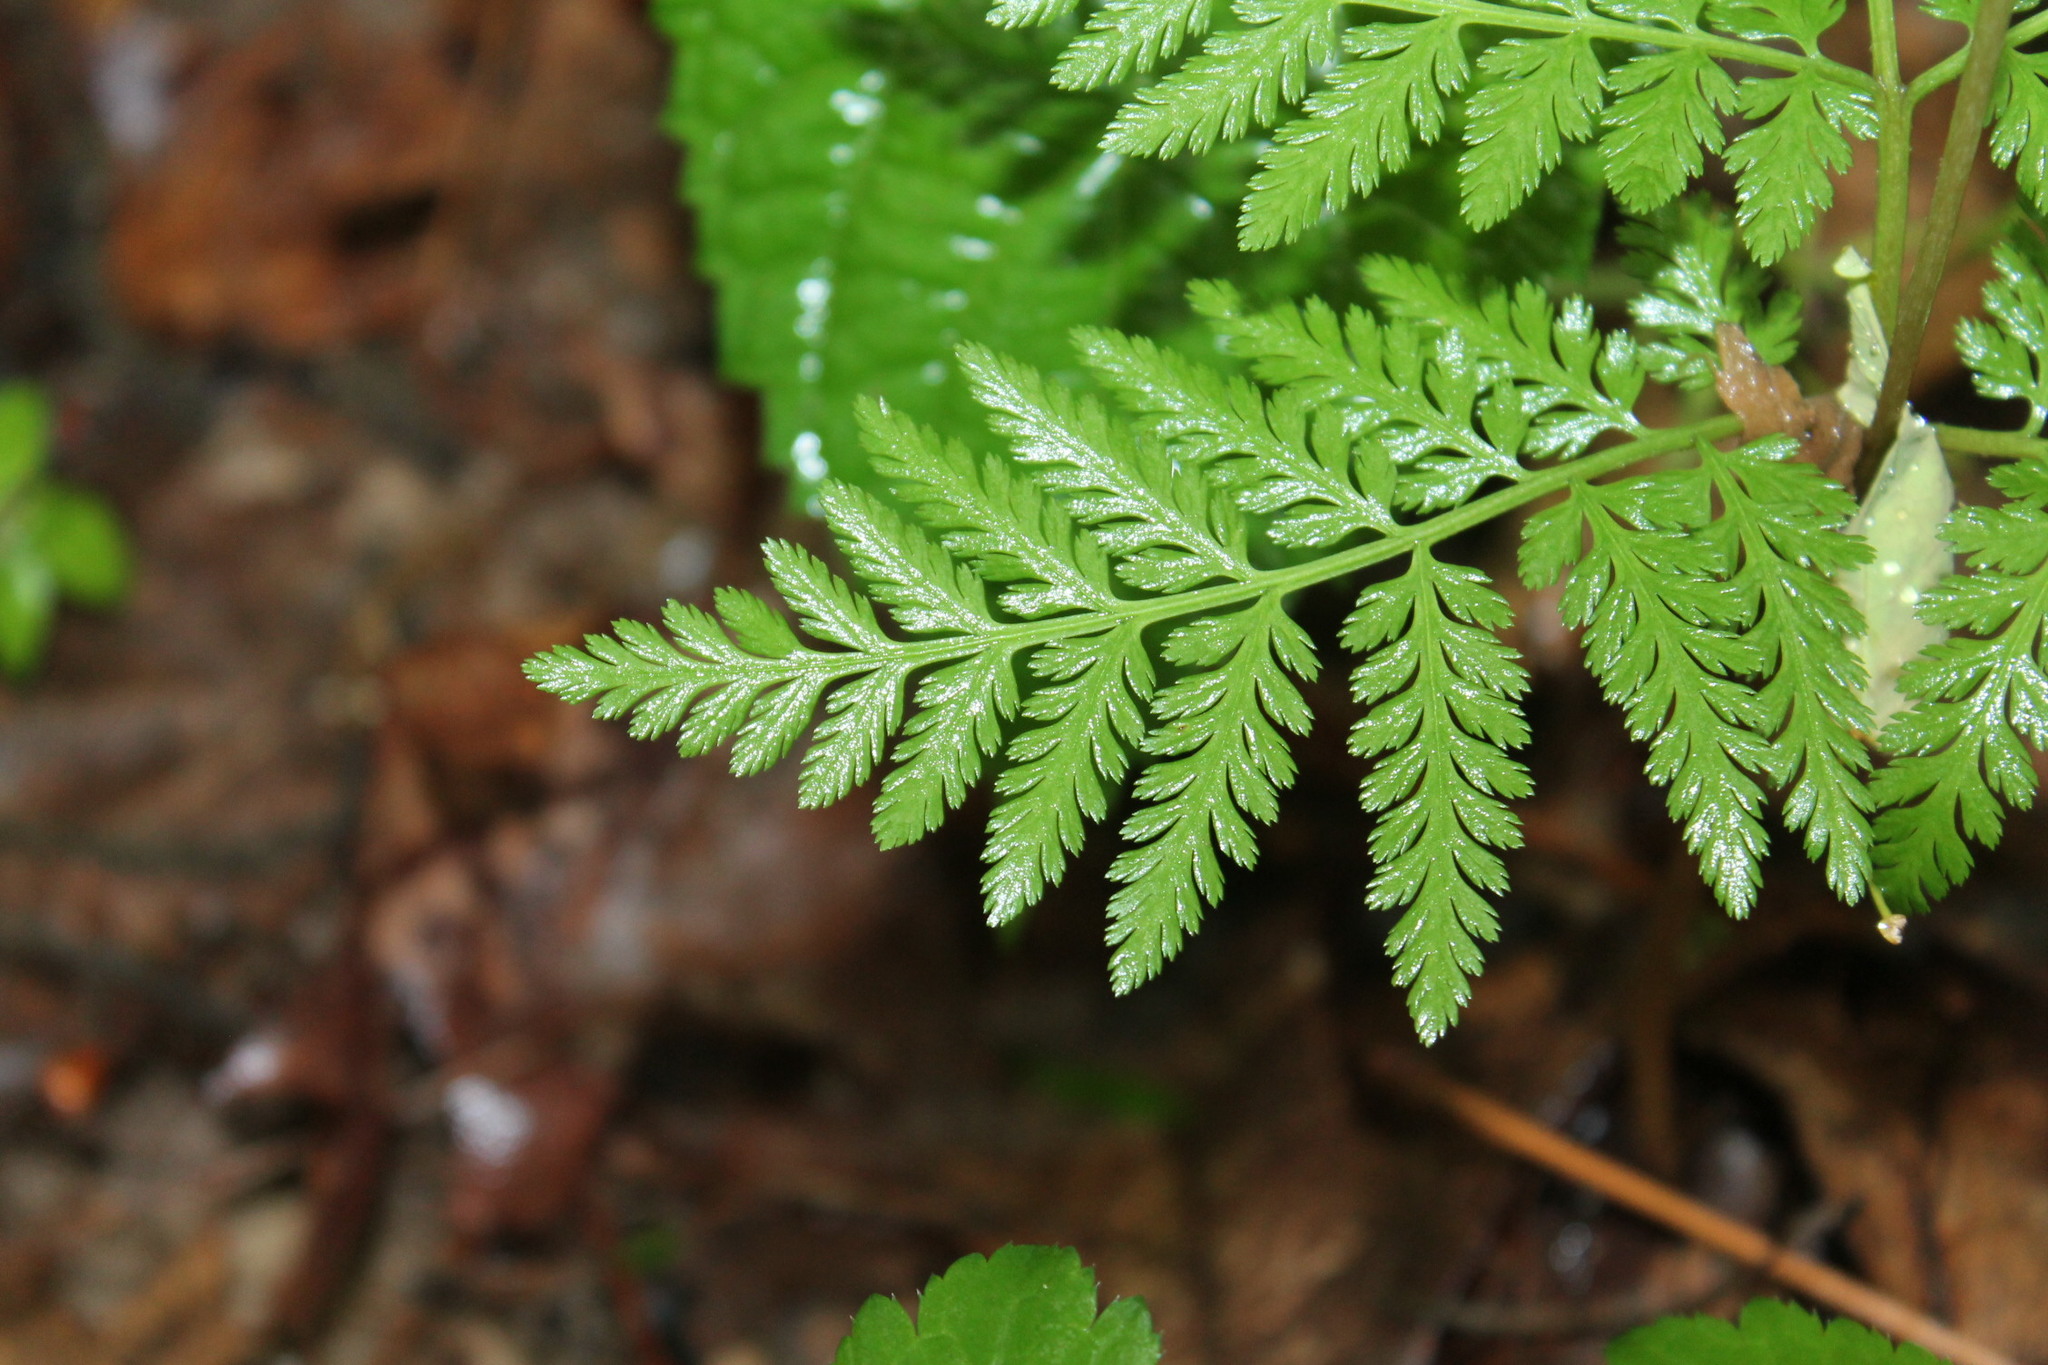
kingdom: Plantae
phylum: Tracheophyta
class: Polypodiopsida
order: Ophioglossales
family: Ophioglossaceae
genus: Botrypus
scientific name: Botrypus virginianus
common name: Common grapefern
